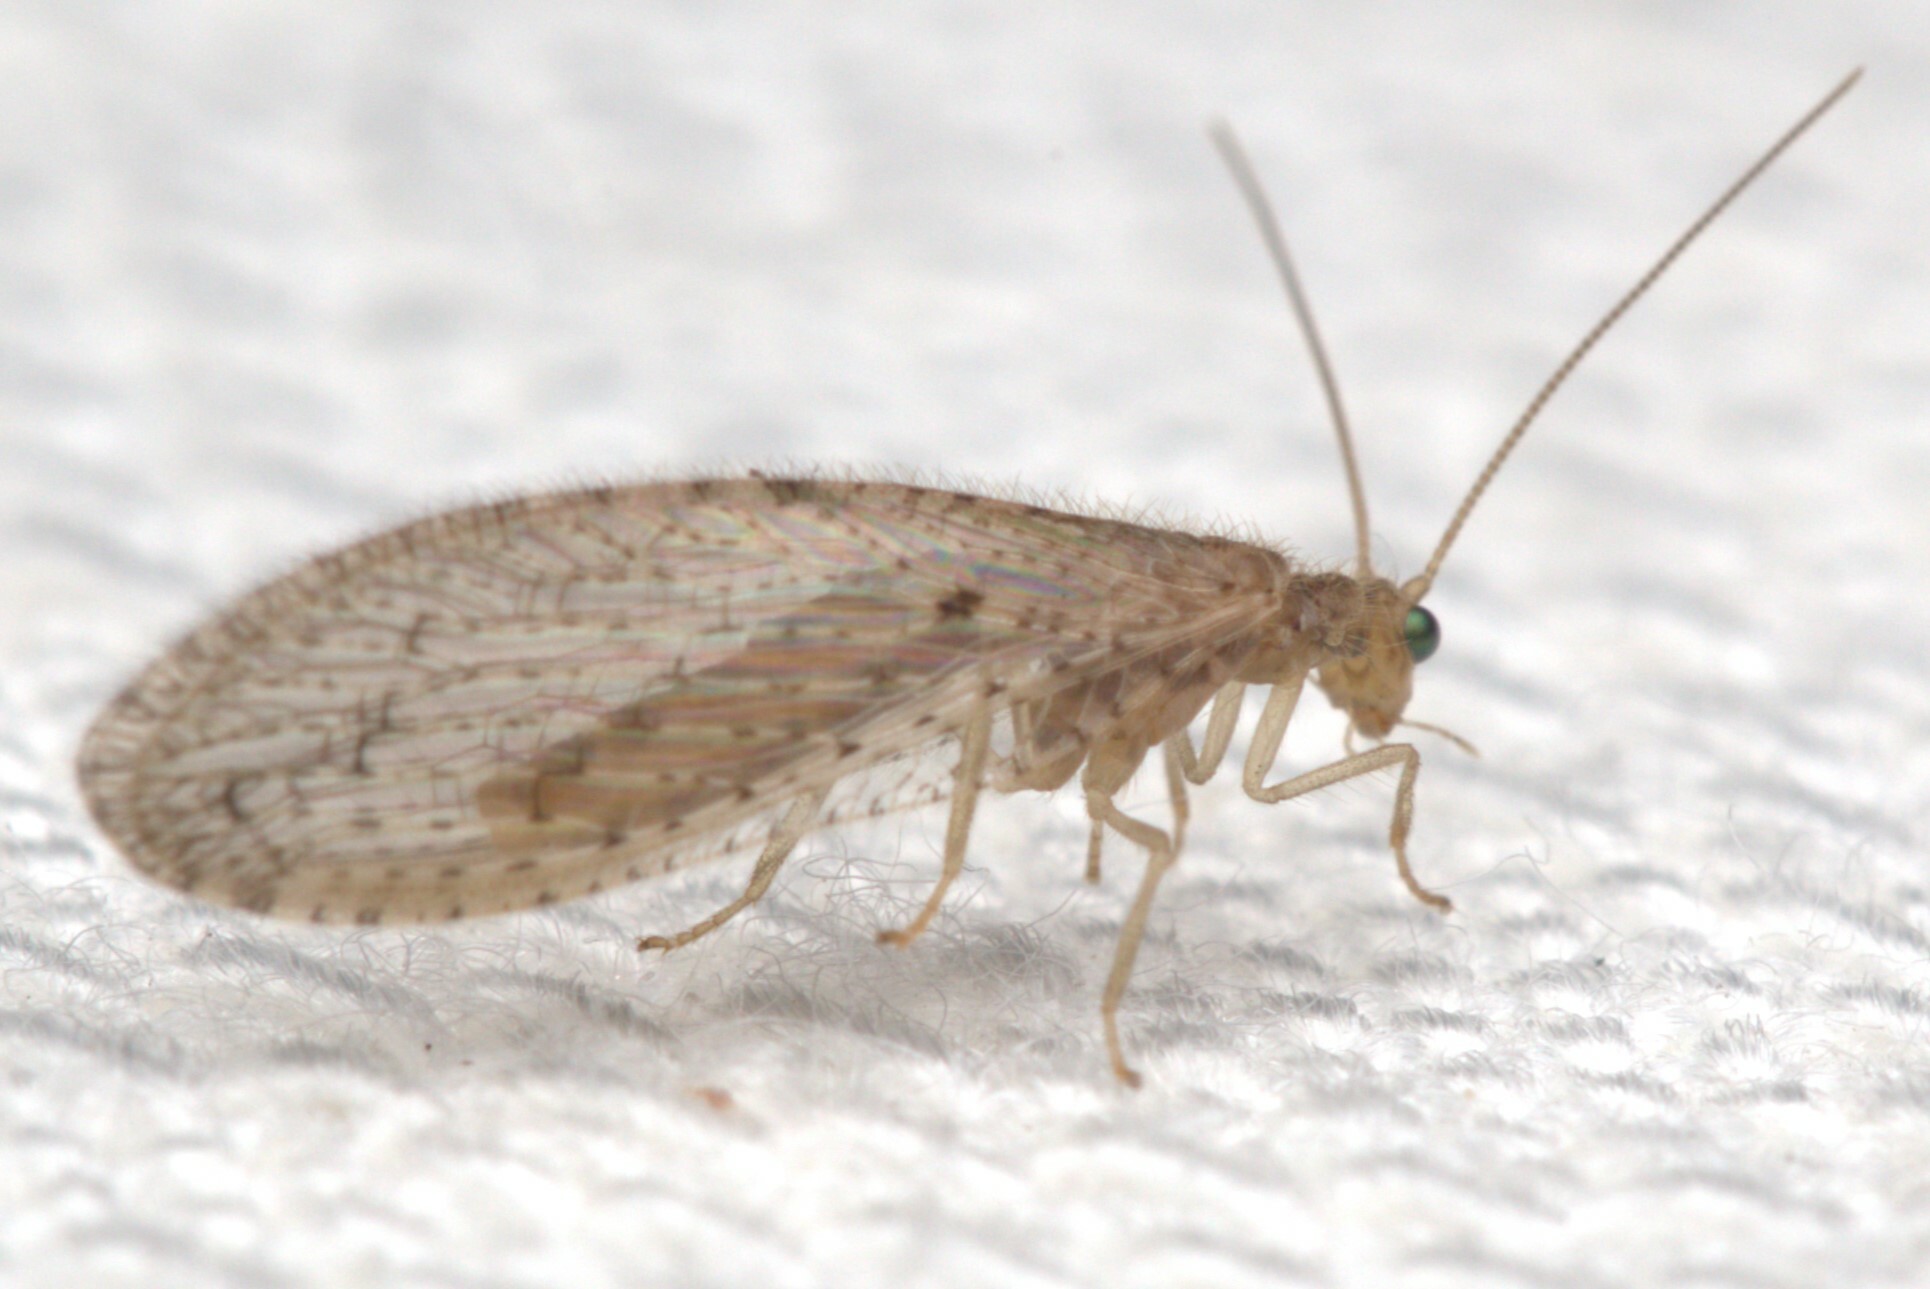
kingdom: Animalia
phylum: Arthropoda
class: Insecta
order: Neuroptera
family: Hemerobiidae
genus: Micromus
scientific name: Micromus tasmaniae
